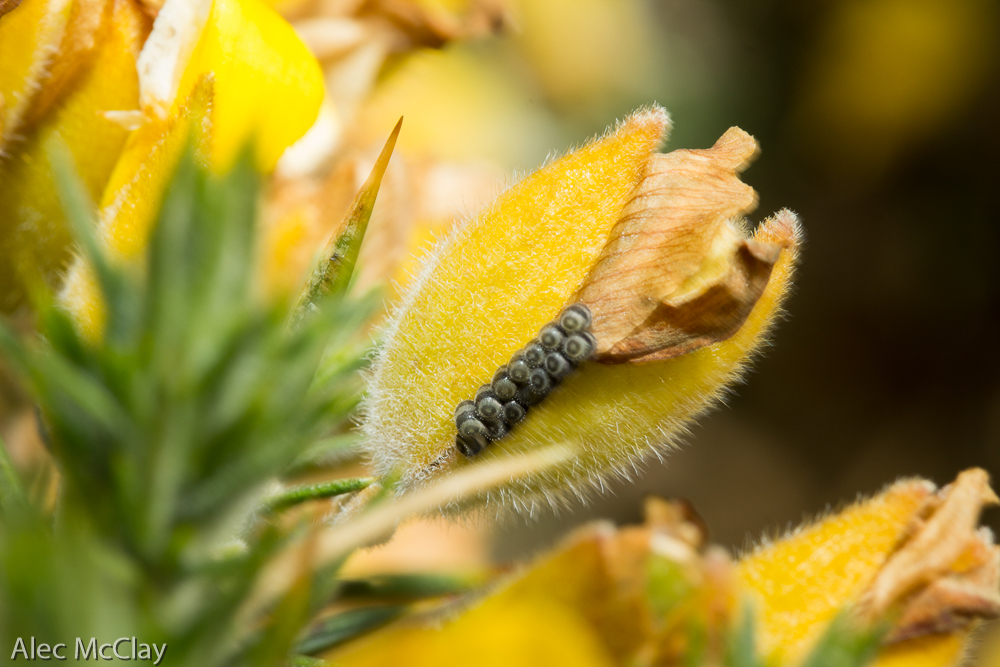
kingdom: Animalia
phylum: Arthropoda
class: Insecta
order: Hemiptera
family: Pentatomidae
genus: Piezodorus
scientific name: Piezodorus lituratus
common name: Stink bug
